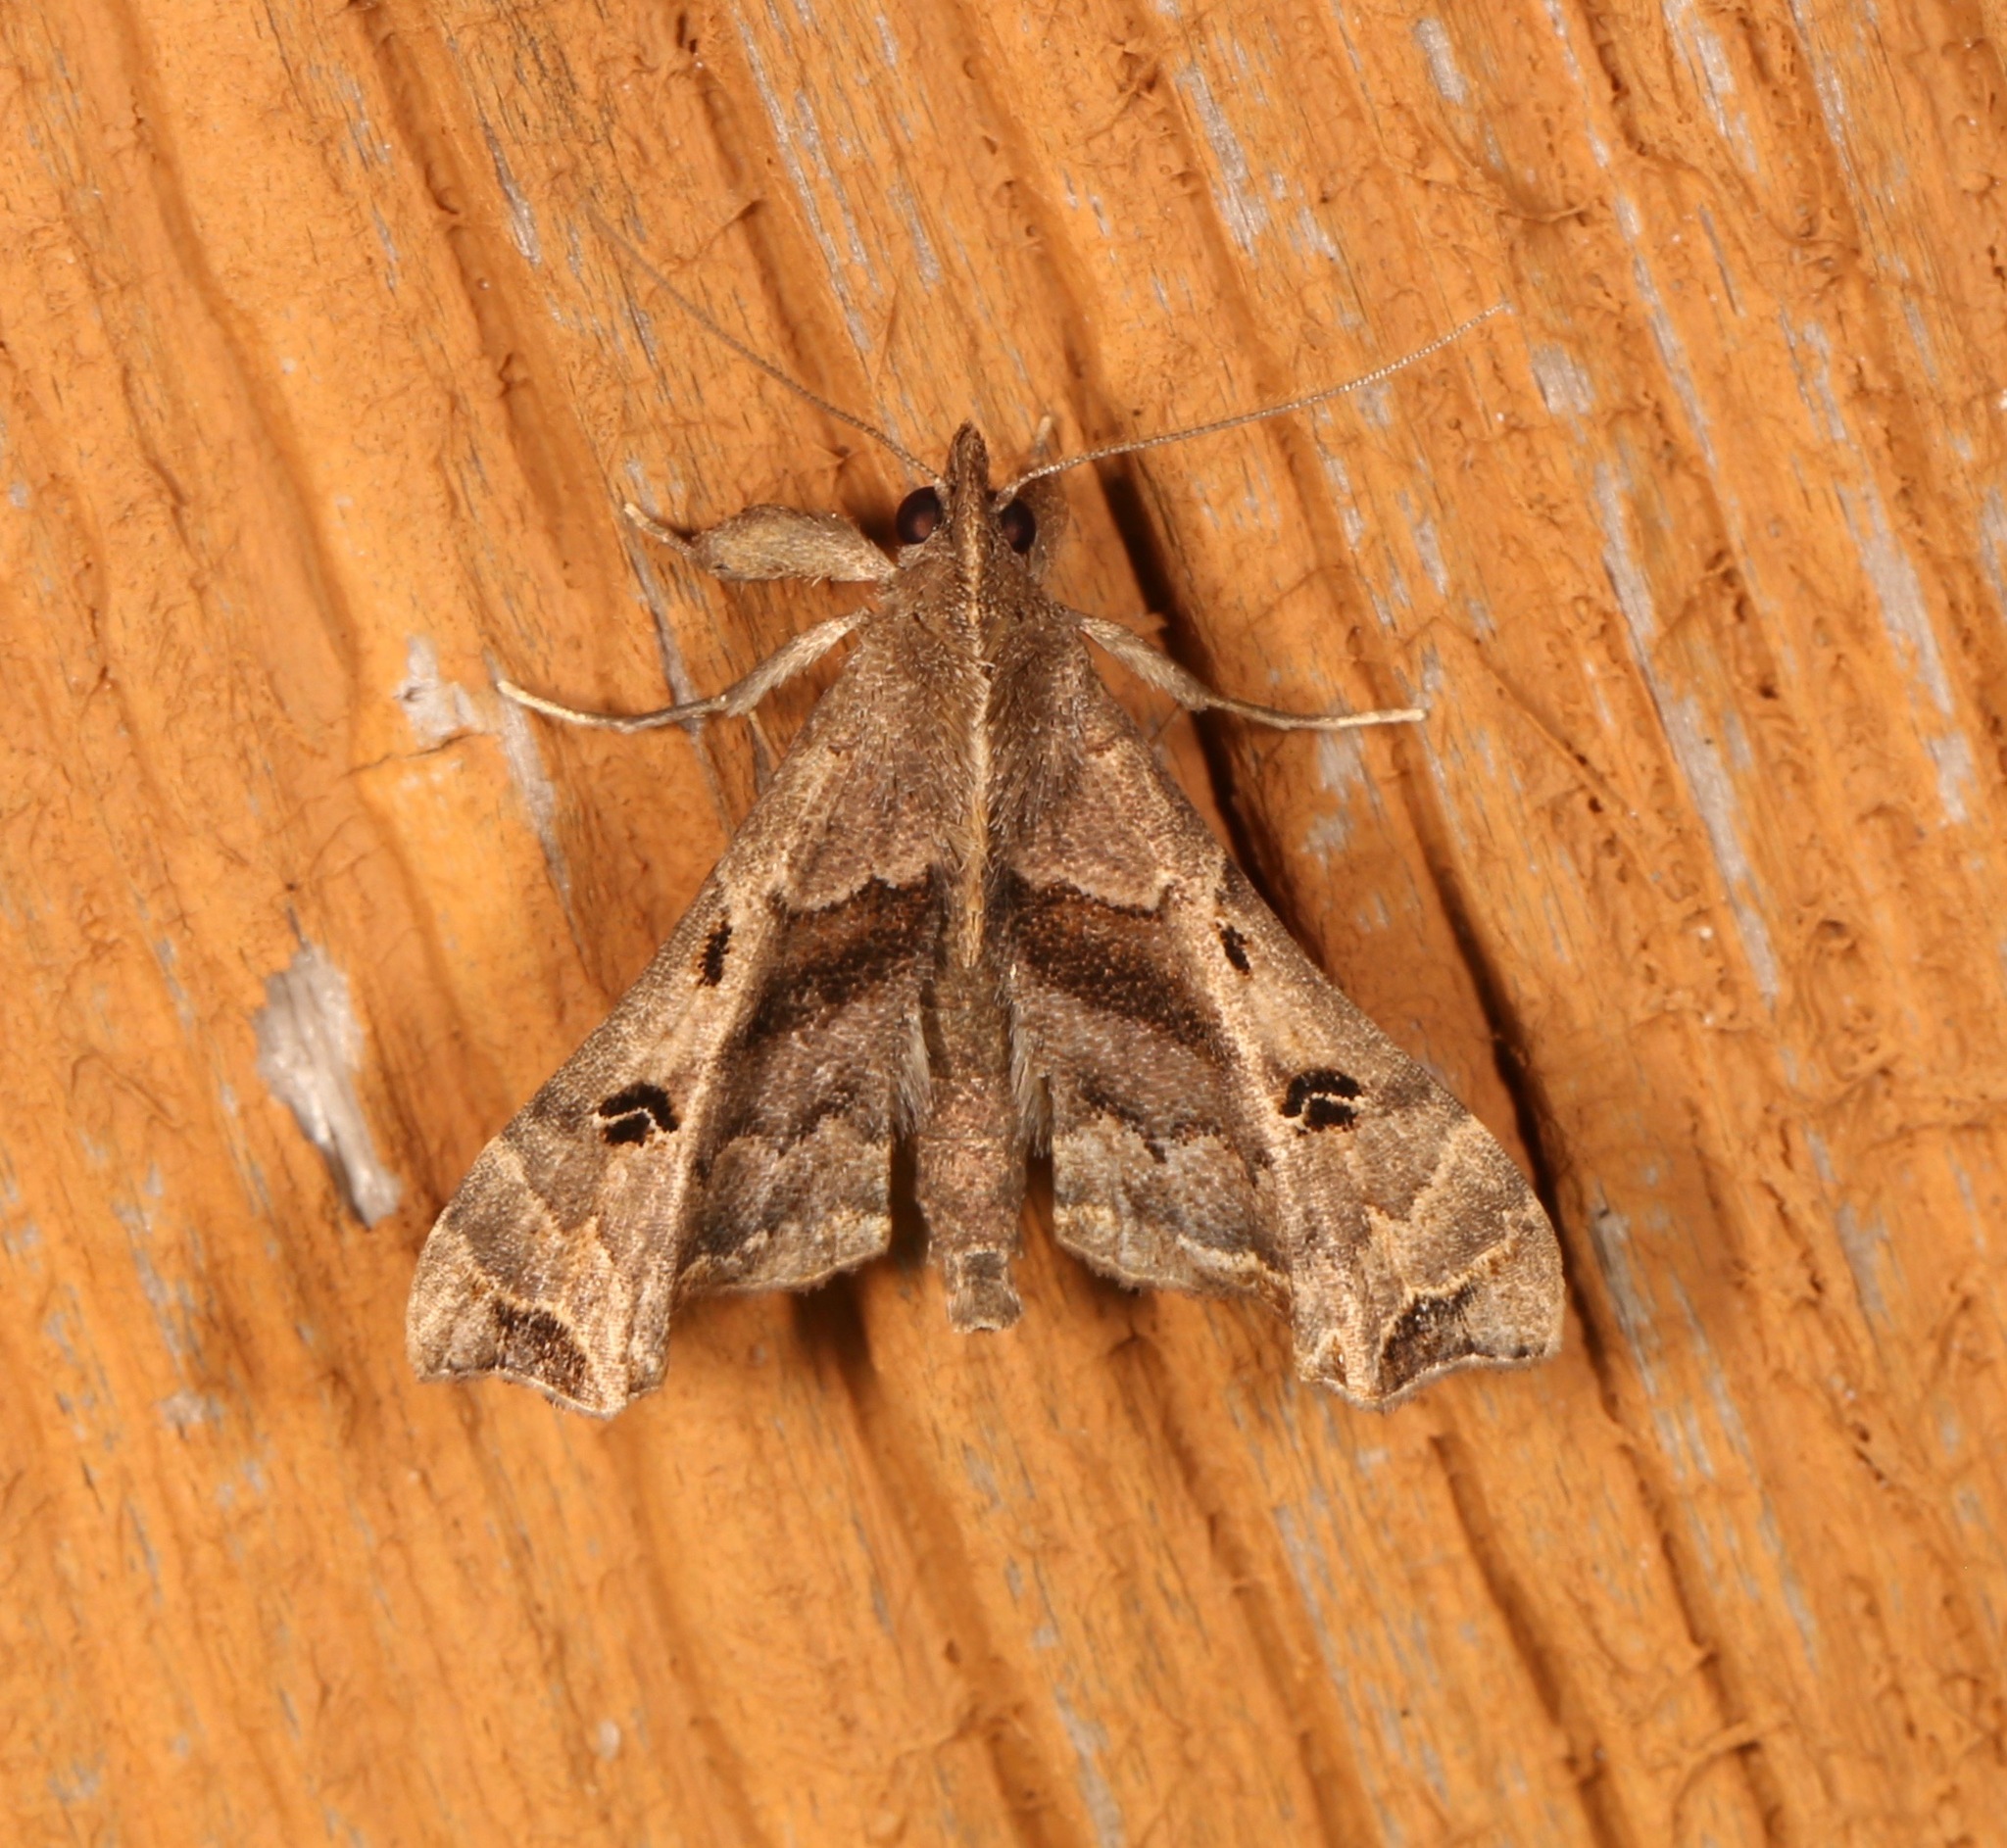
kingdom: Animalia
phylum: Arthropoda
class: Insecta
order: Lepidoptera
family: Erebidae
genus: Palthis
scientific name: Palthis asopialis
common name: Faint-spotted palthis moth
